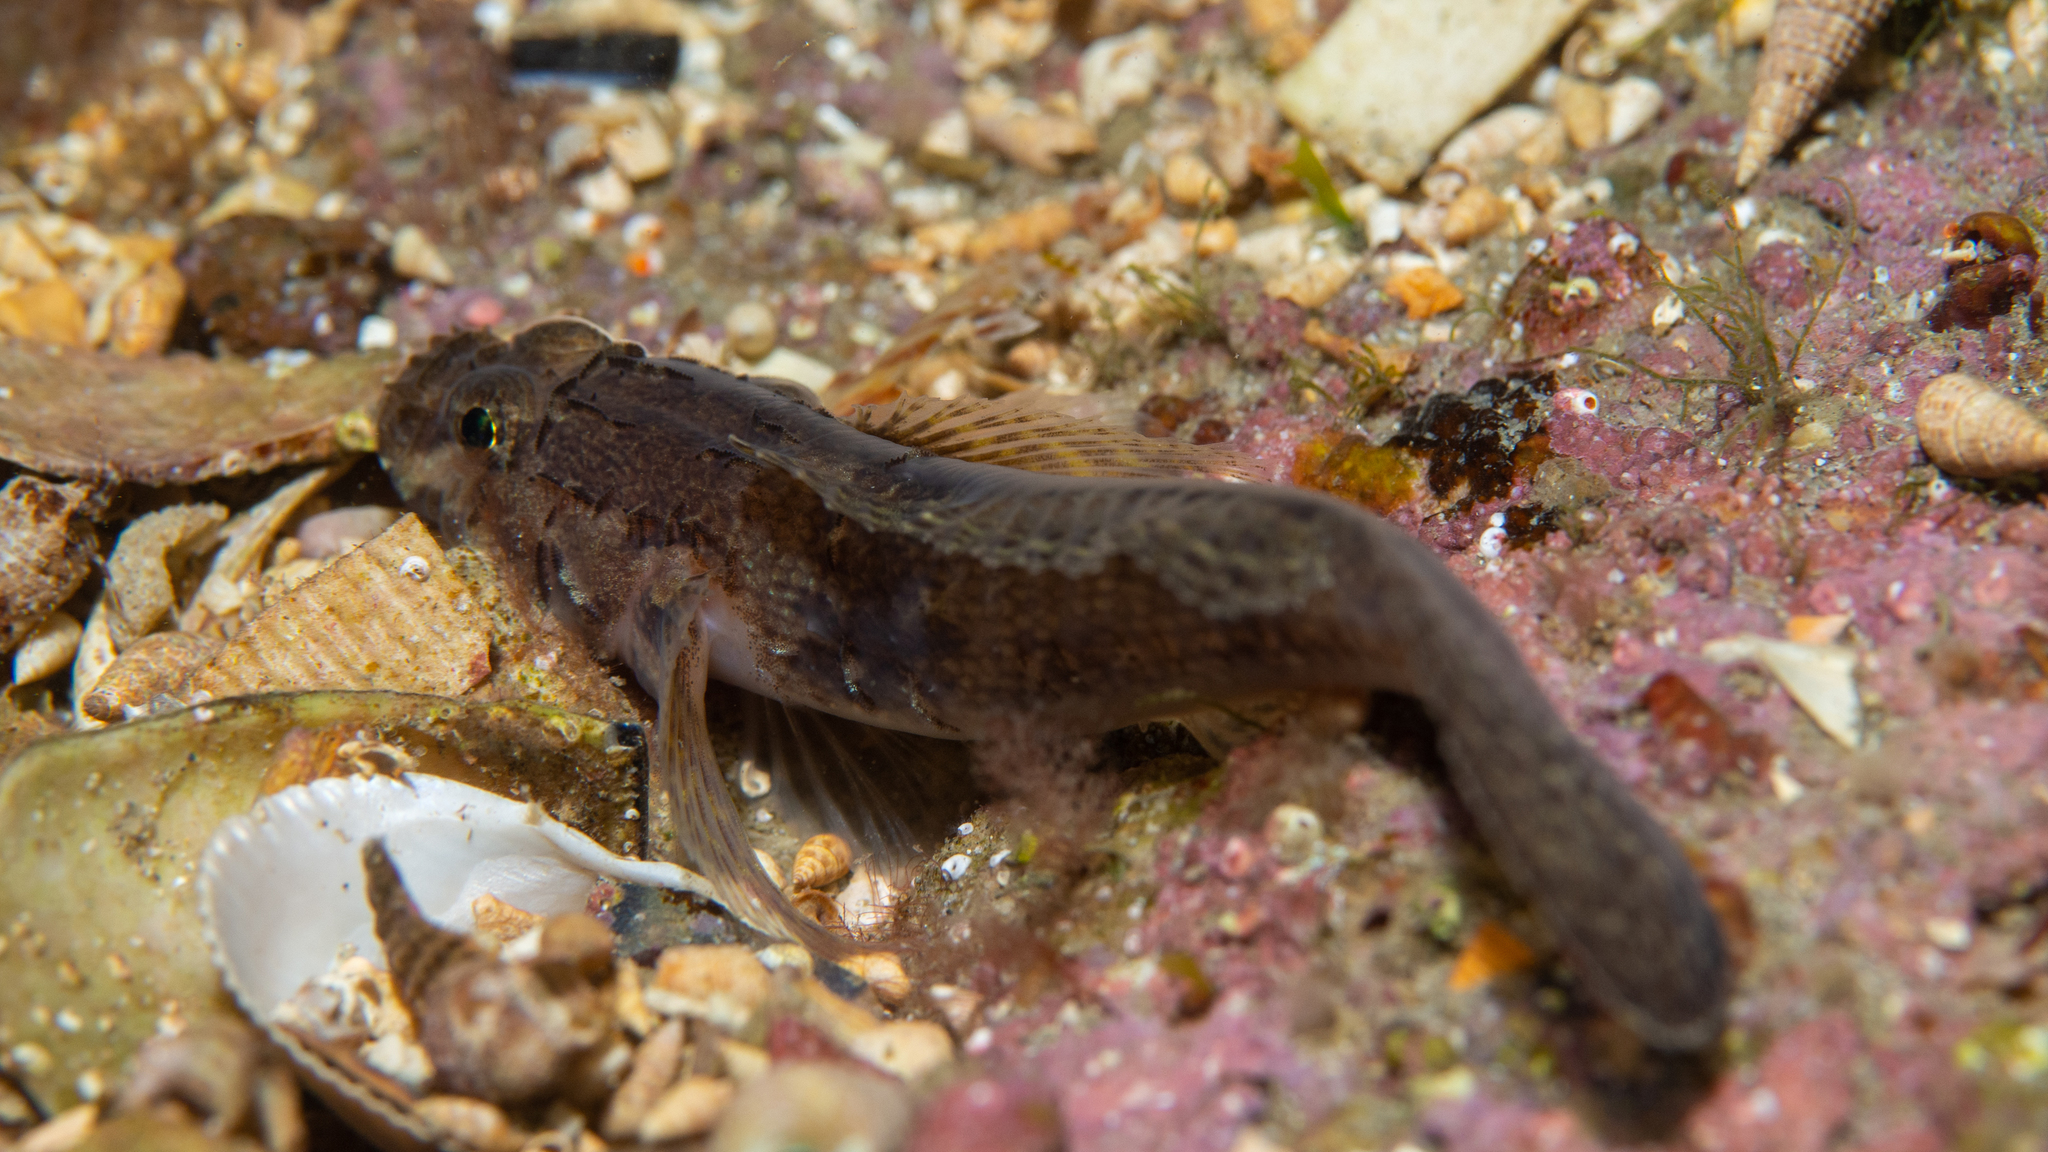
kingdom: Animalia
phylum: Chordata
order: Perciformes
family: Gobiidae
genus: Callogobius
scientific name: Callogobius mucosus
